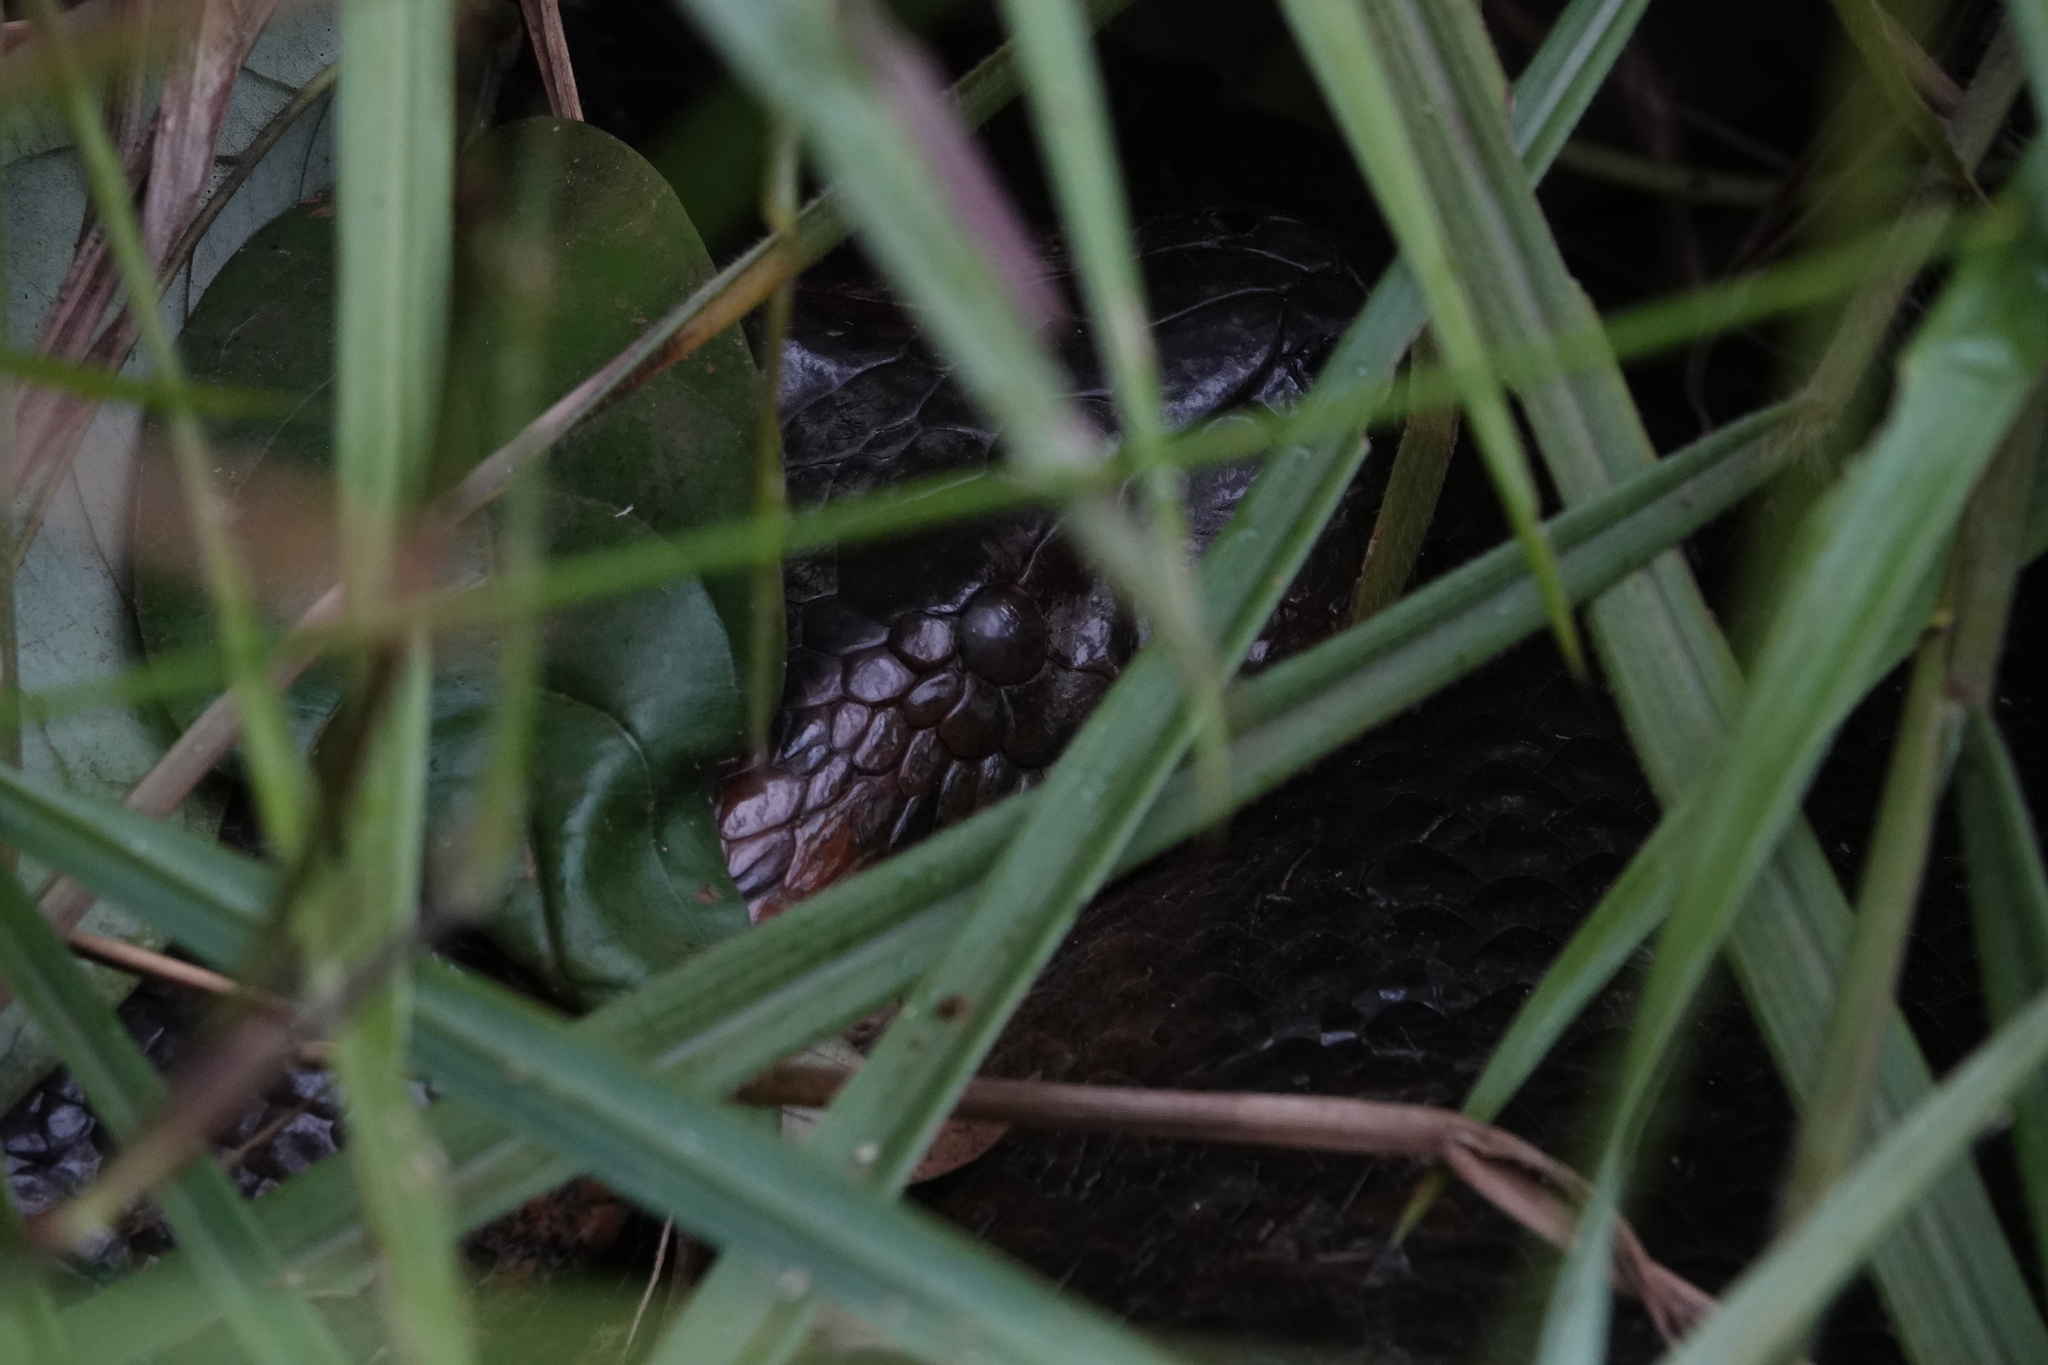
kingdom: Animalia
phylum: Chordata
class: Squamata
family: Boidae
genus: Eunectes
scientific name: Eunectes murinus
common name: Anaconda
